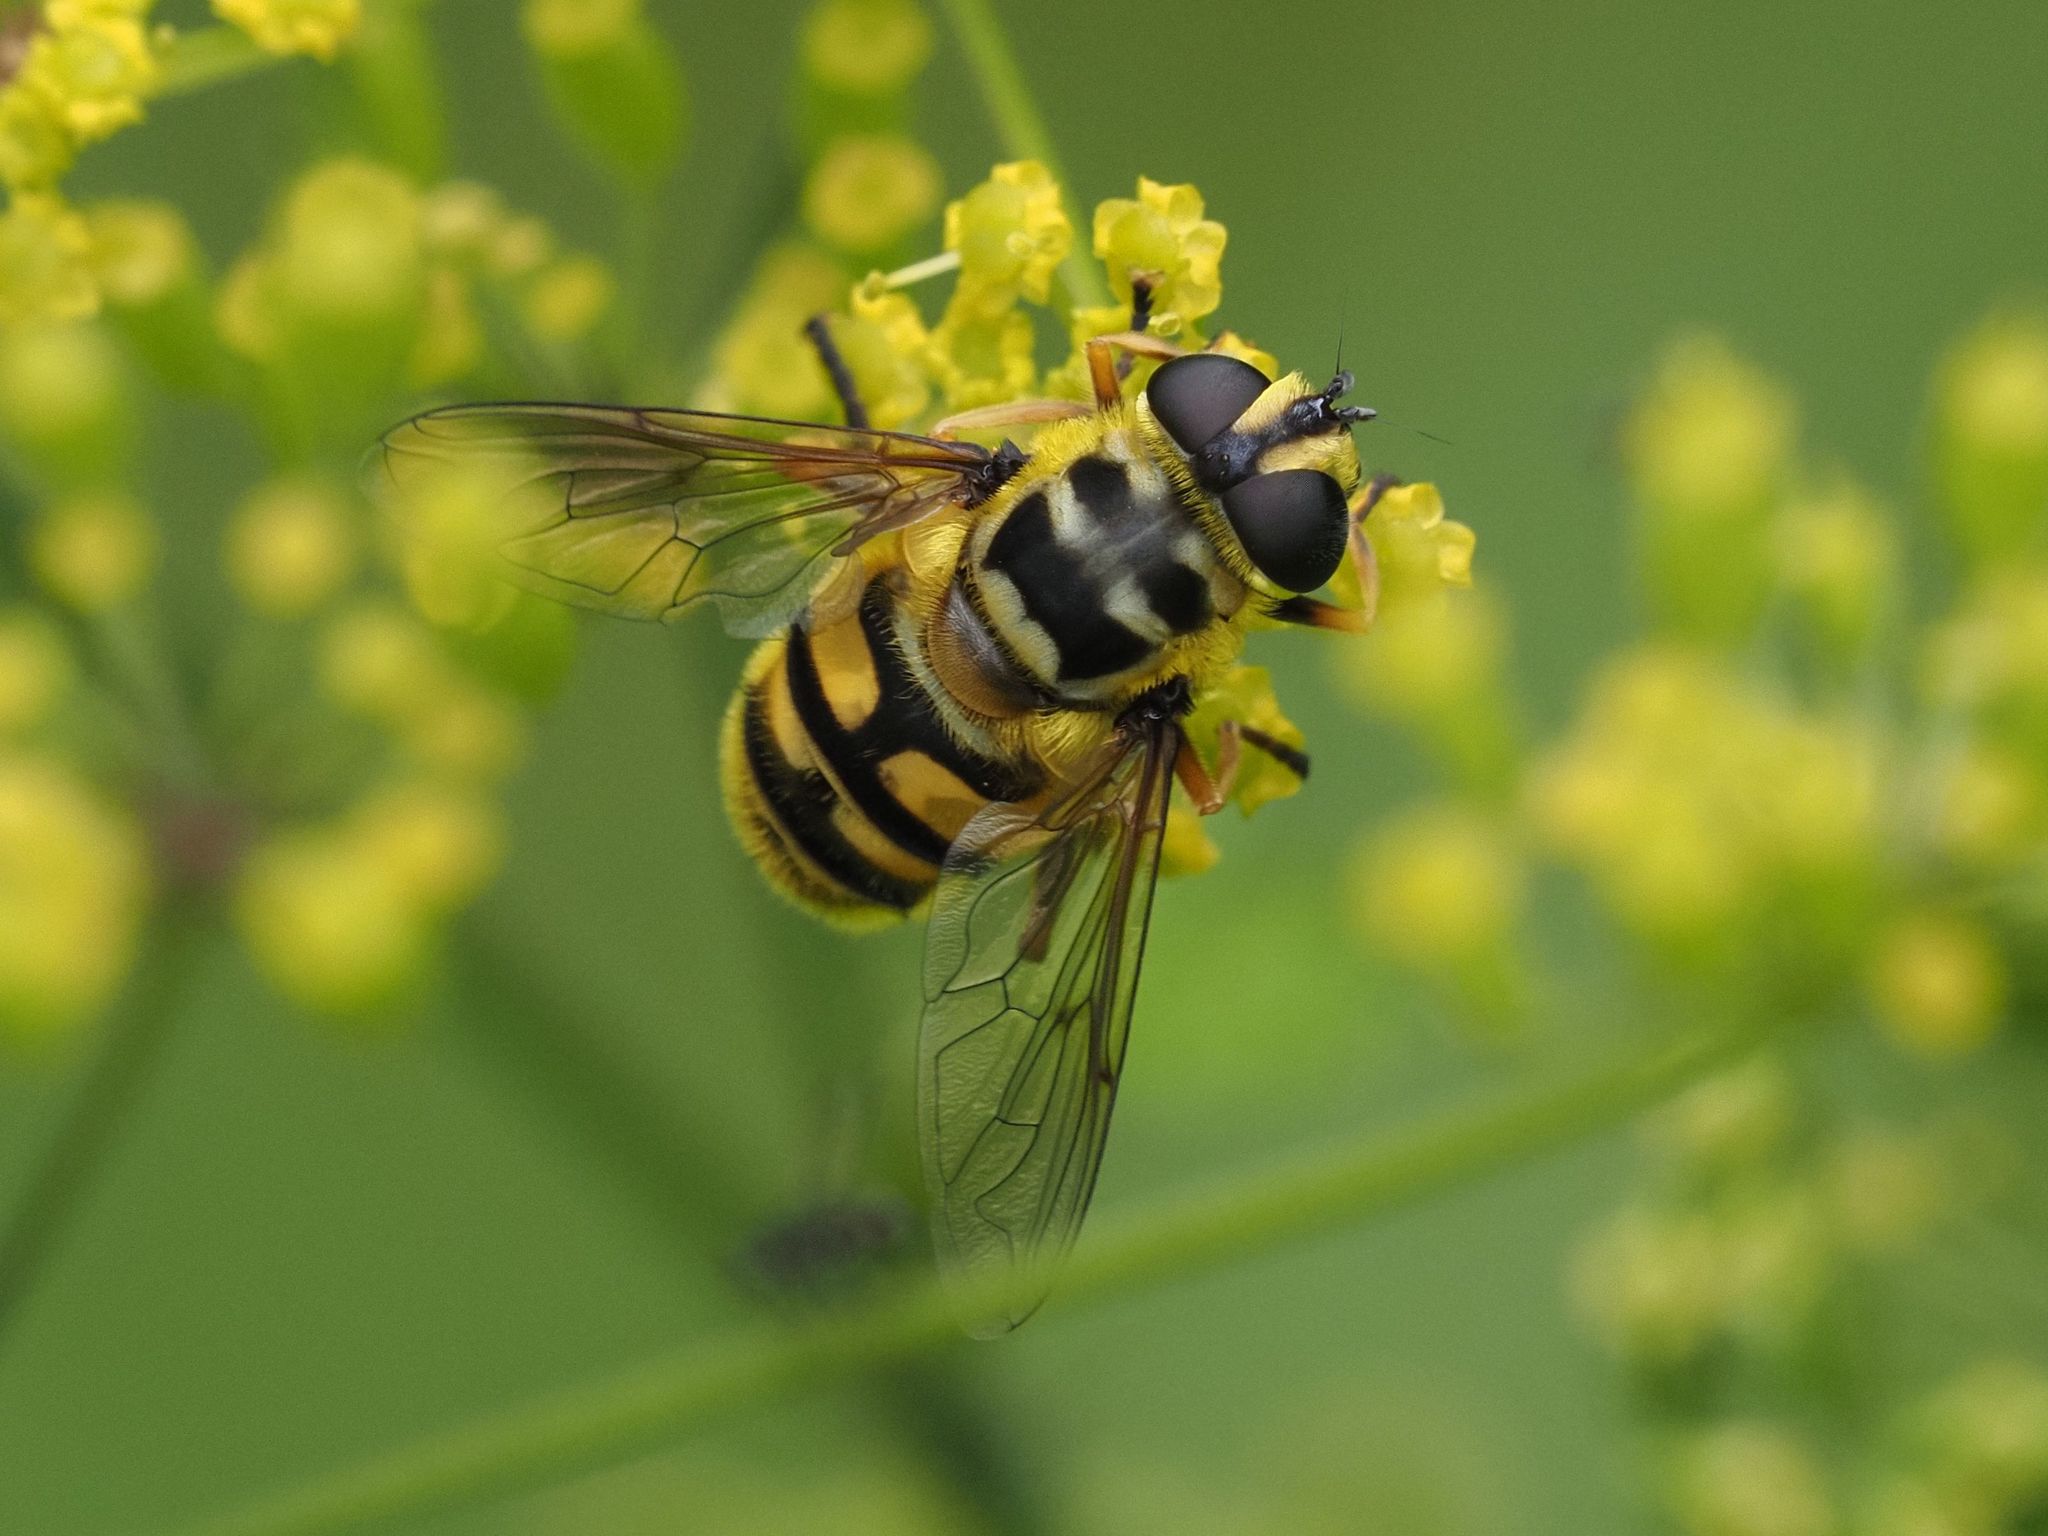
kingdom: Animalia
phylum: Arthropoda
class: Insecta
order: Diptera
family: Syrphidae
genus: Myathropa
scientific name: Myathropa florea
